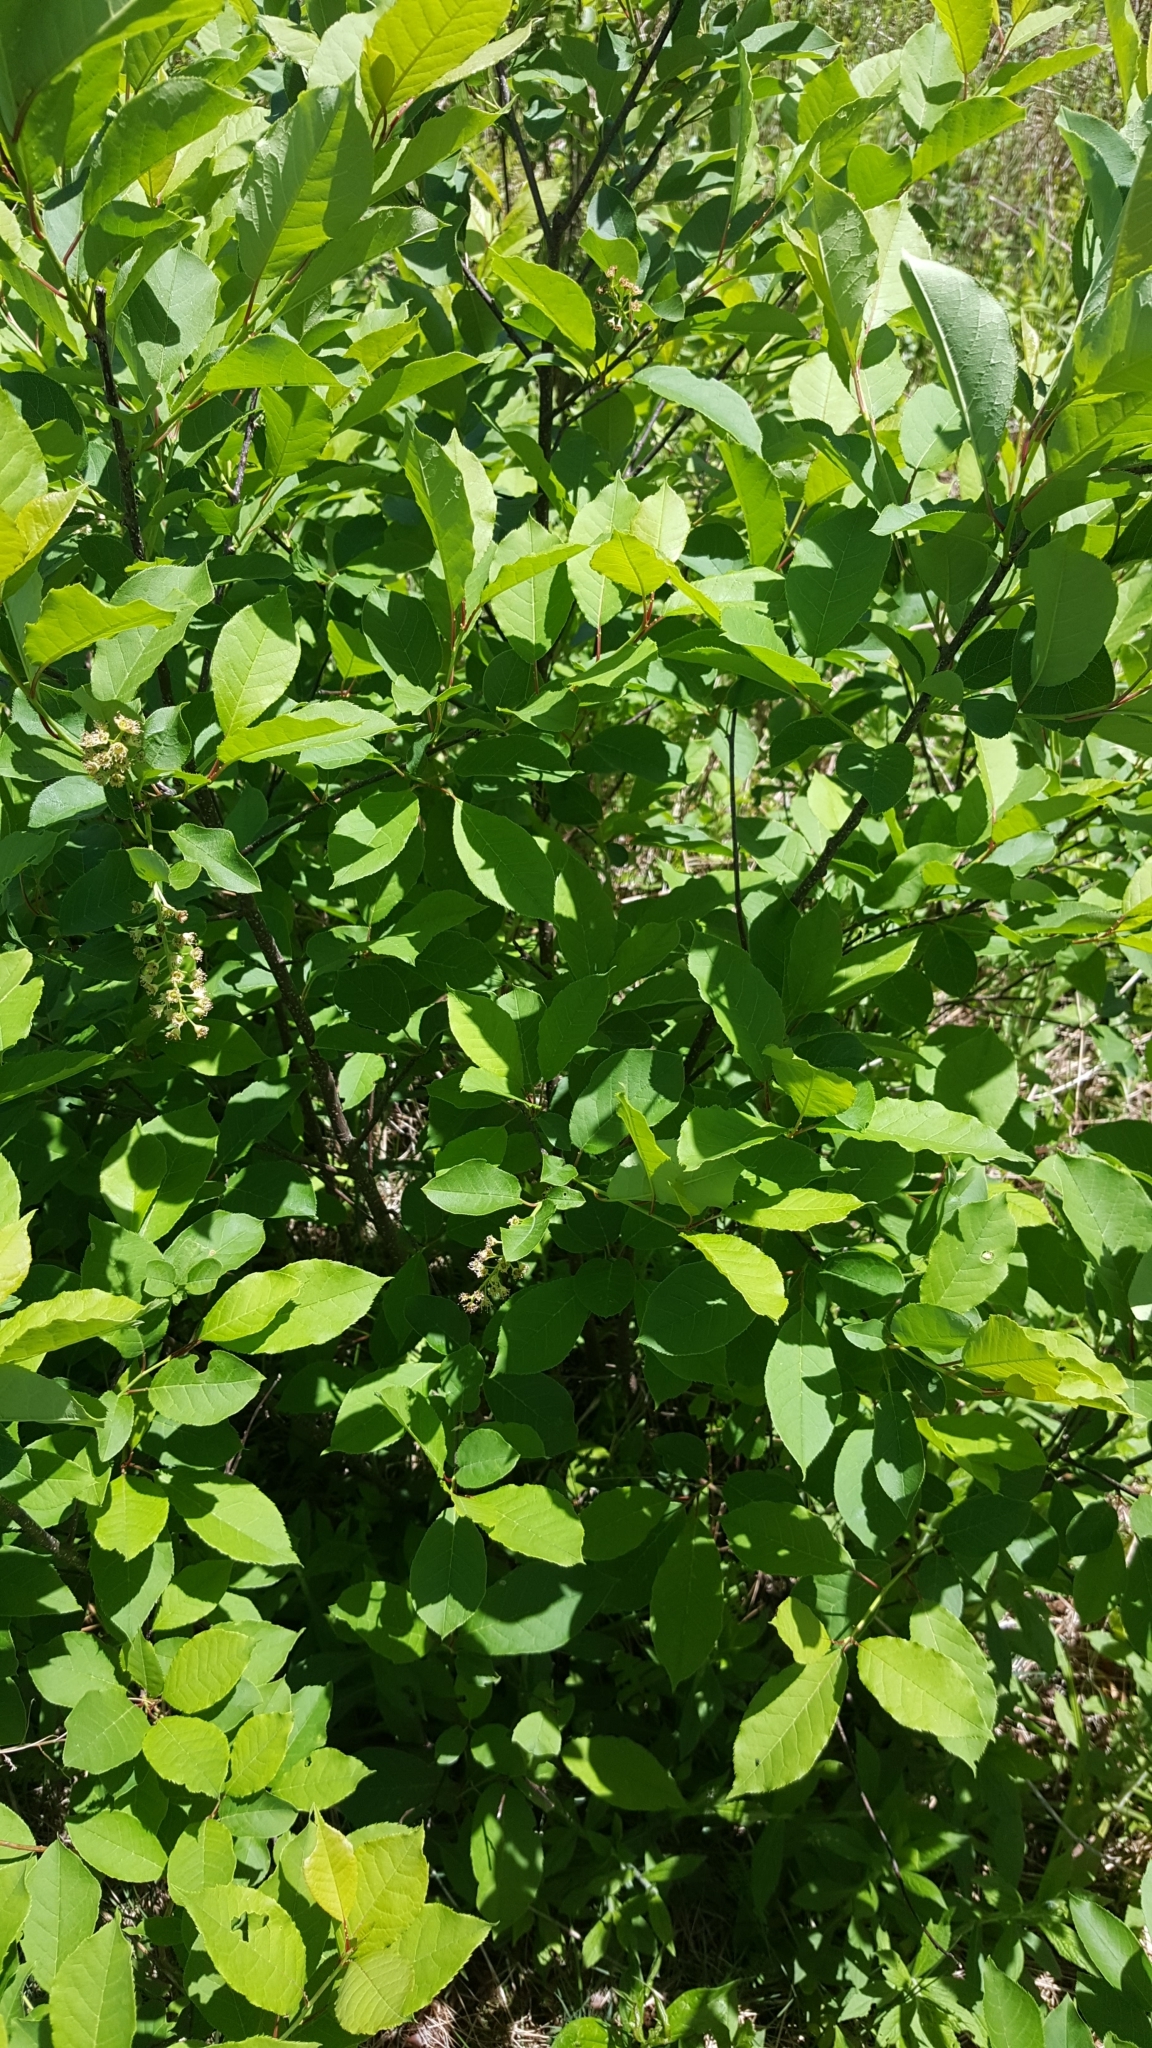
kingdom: Plantae
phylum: Tracheophyta
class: Magnoliopsida
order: Rosales
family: Rosaceae
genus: Prunus
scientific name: Prunus virginiana
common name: Chokecherry
